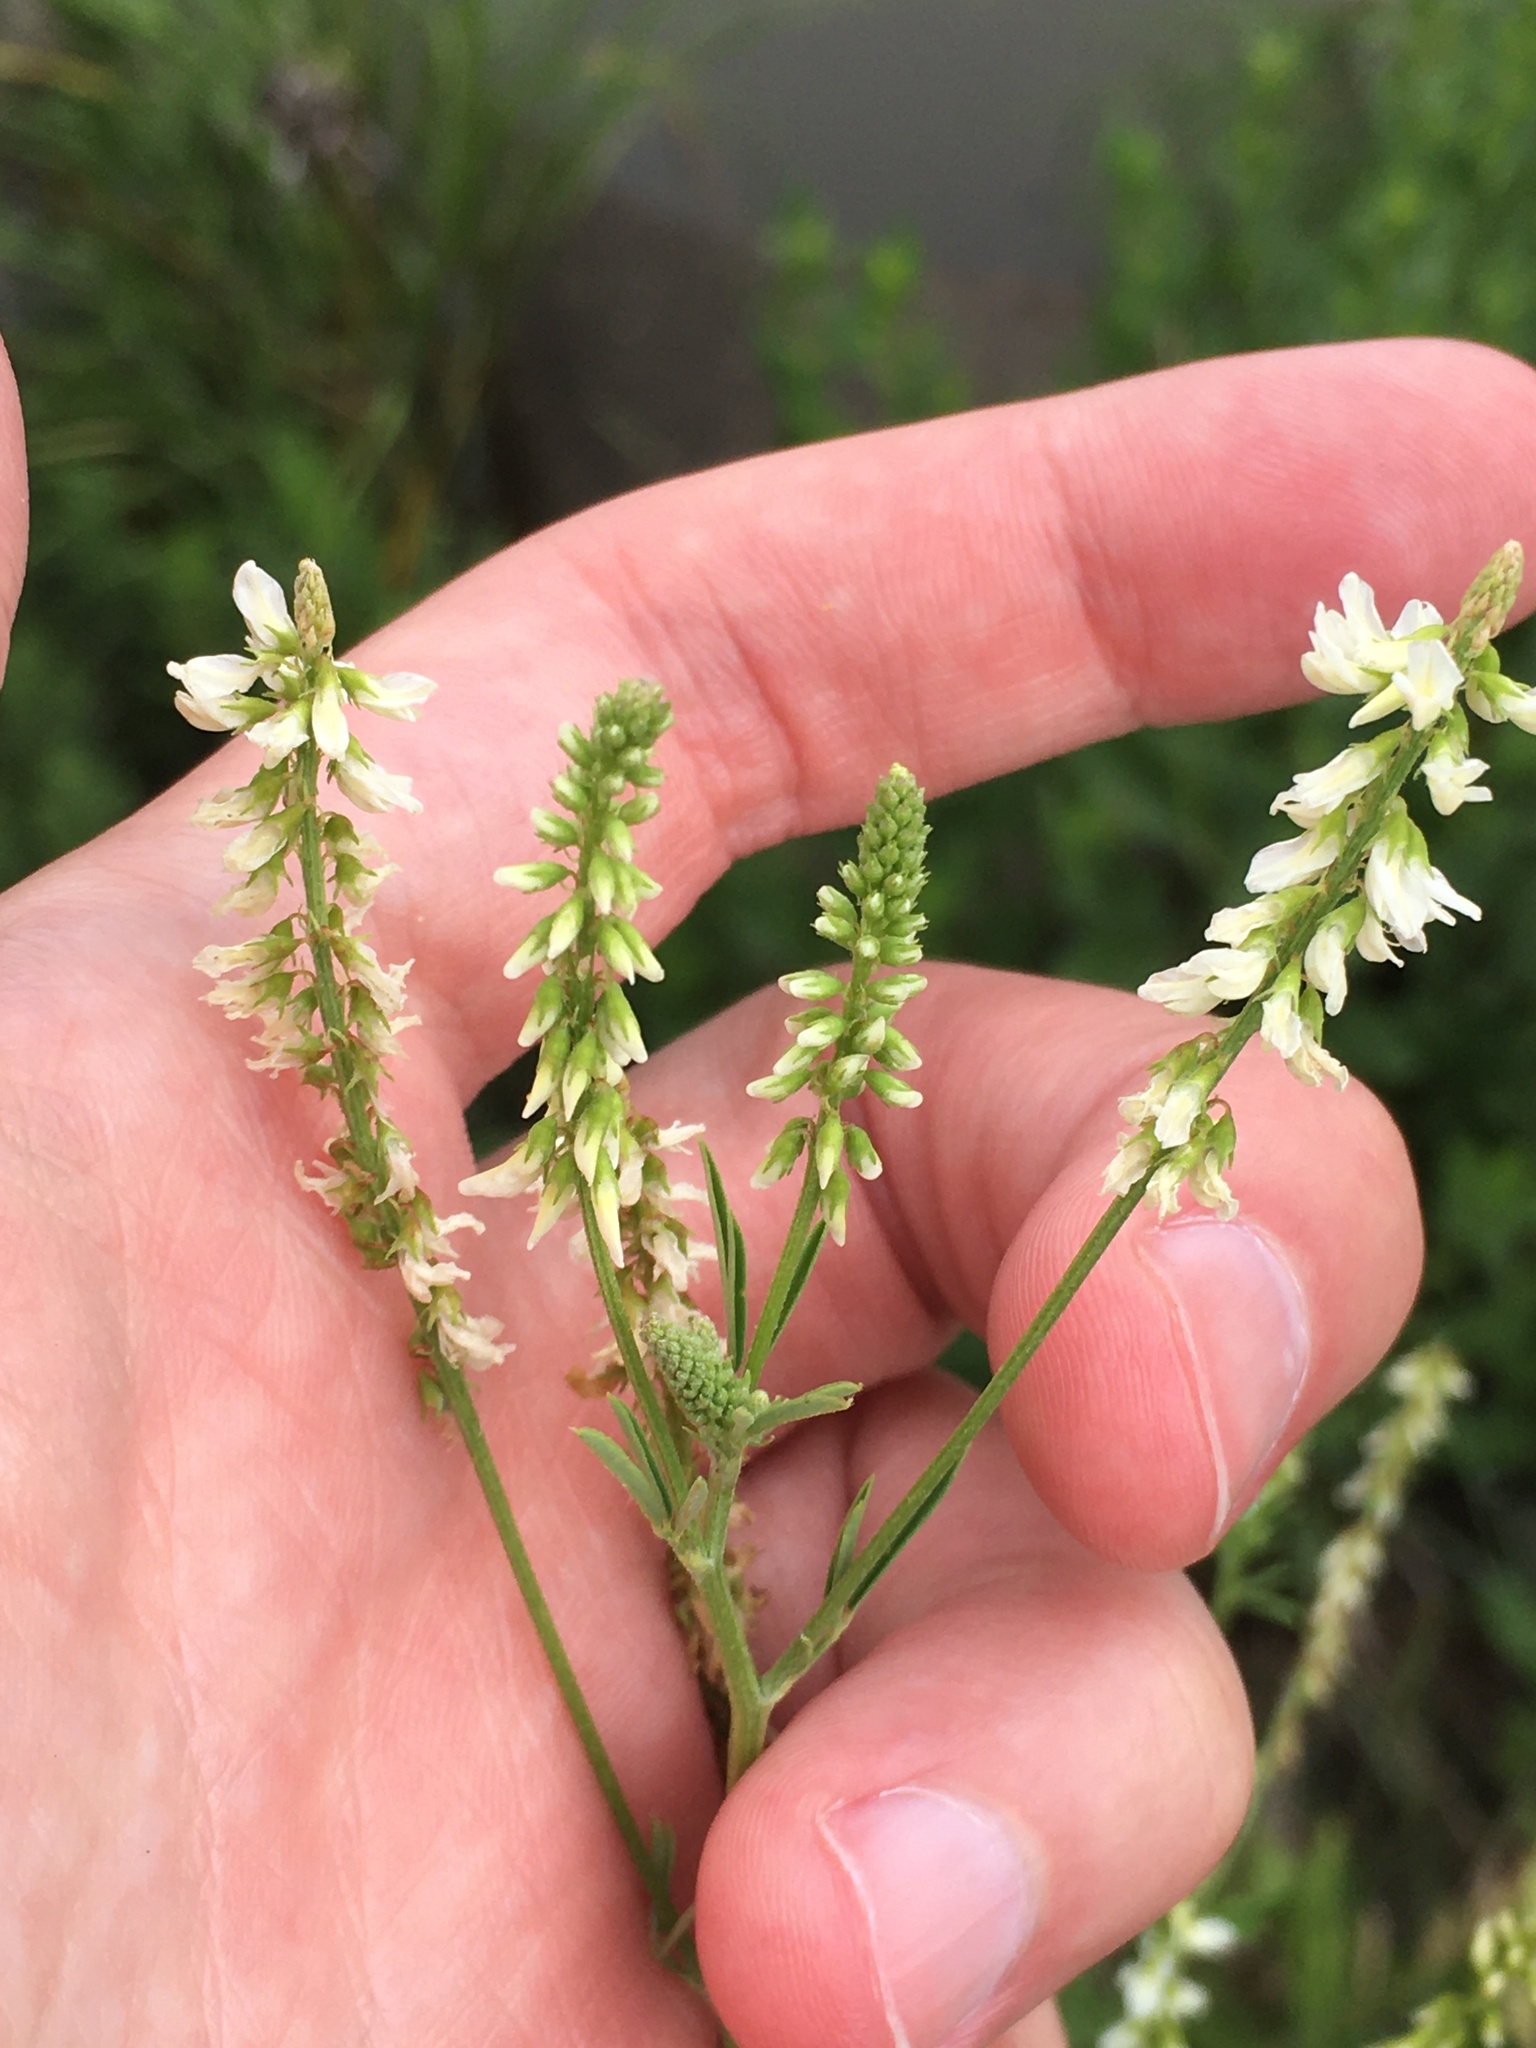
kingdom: Plantae
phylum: Tracheophyta
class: Magnoliopsida
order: Fabales
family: Fabaceae
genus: Melilotus
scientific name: Melilotus albus
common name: White melilot
